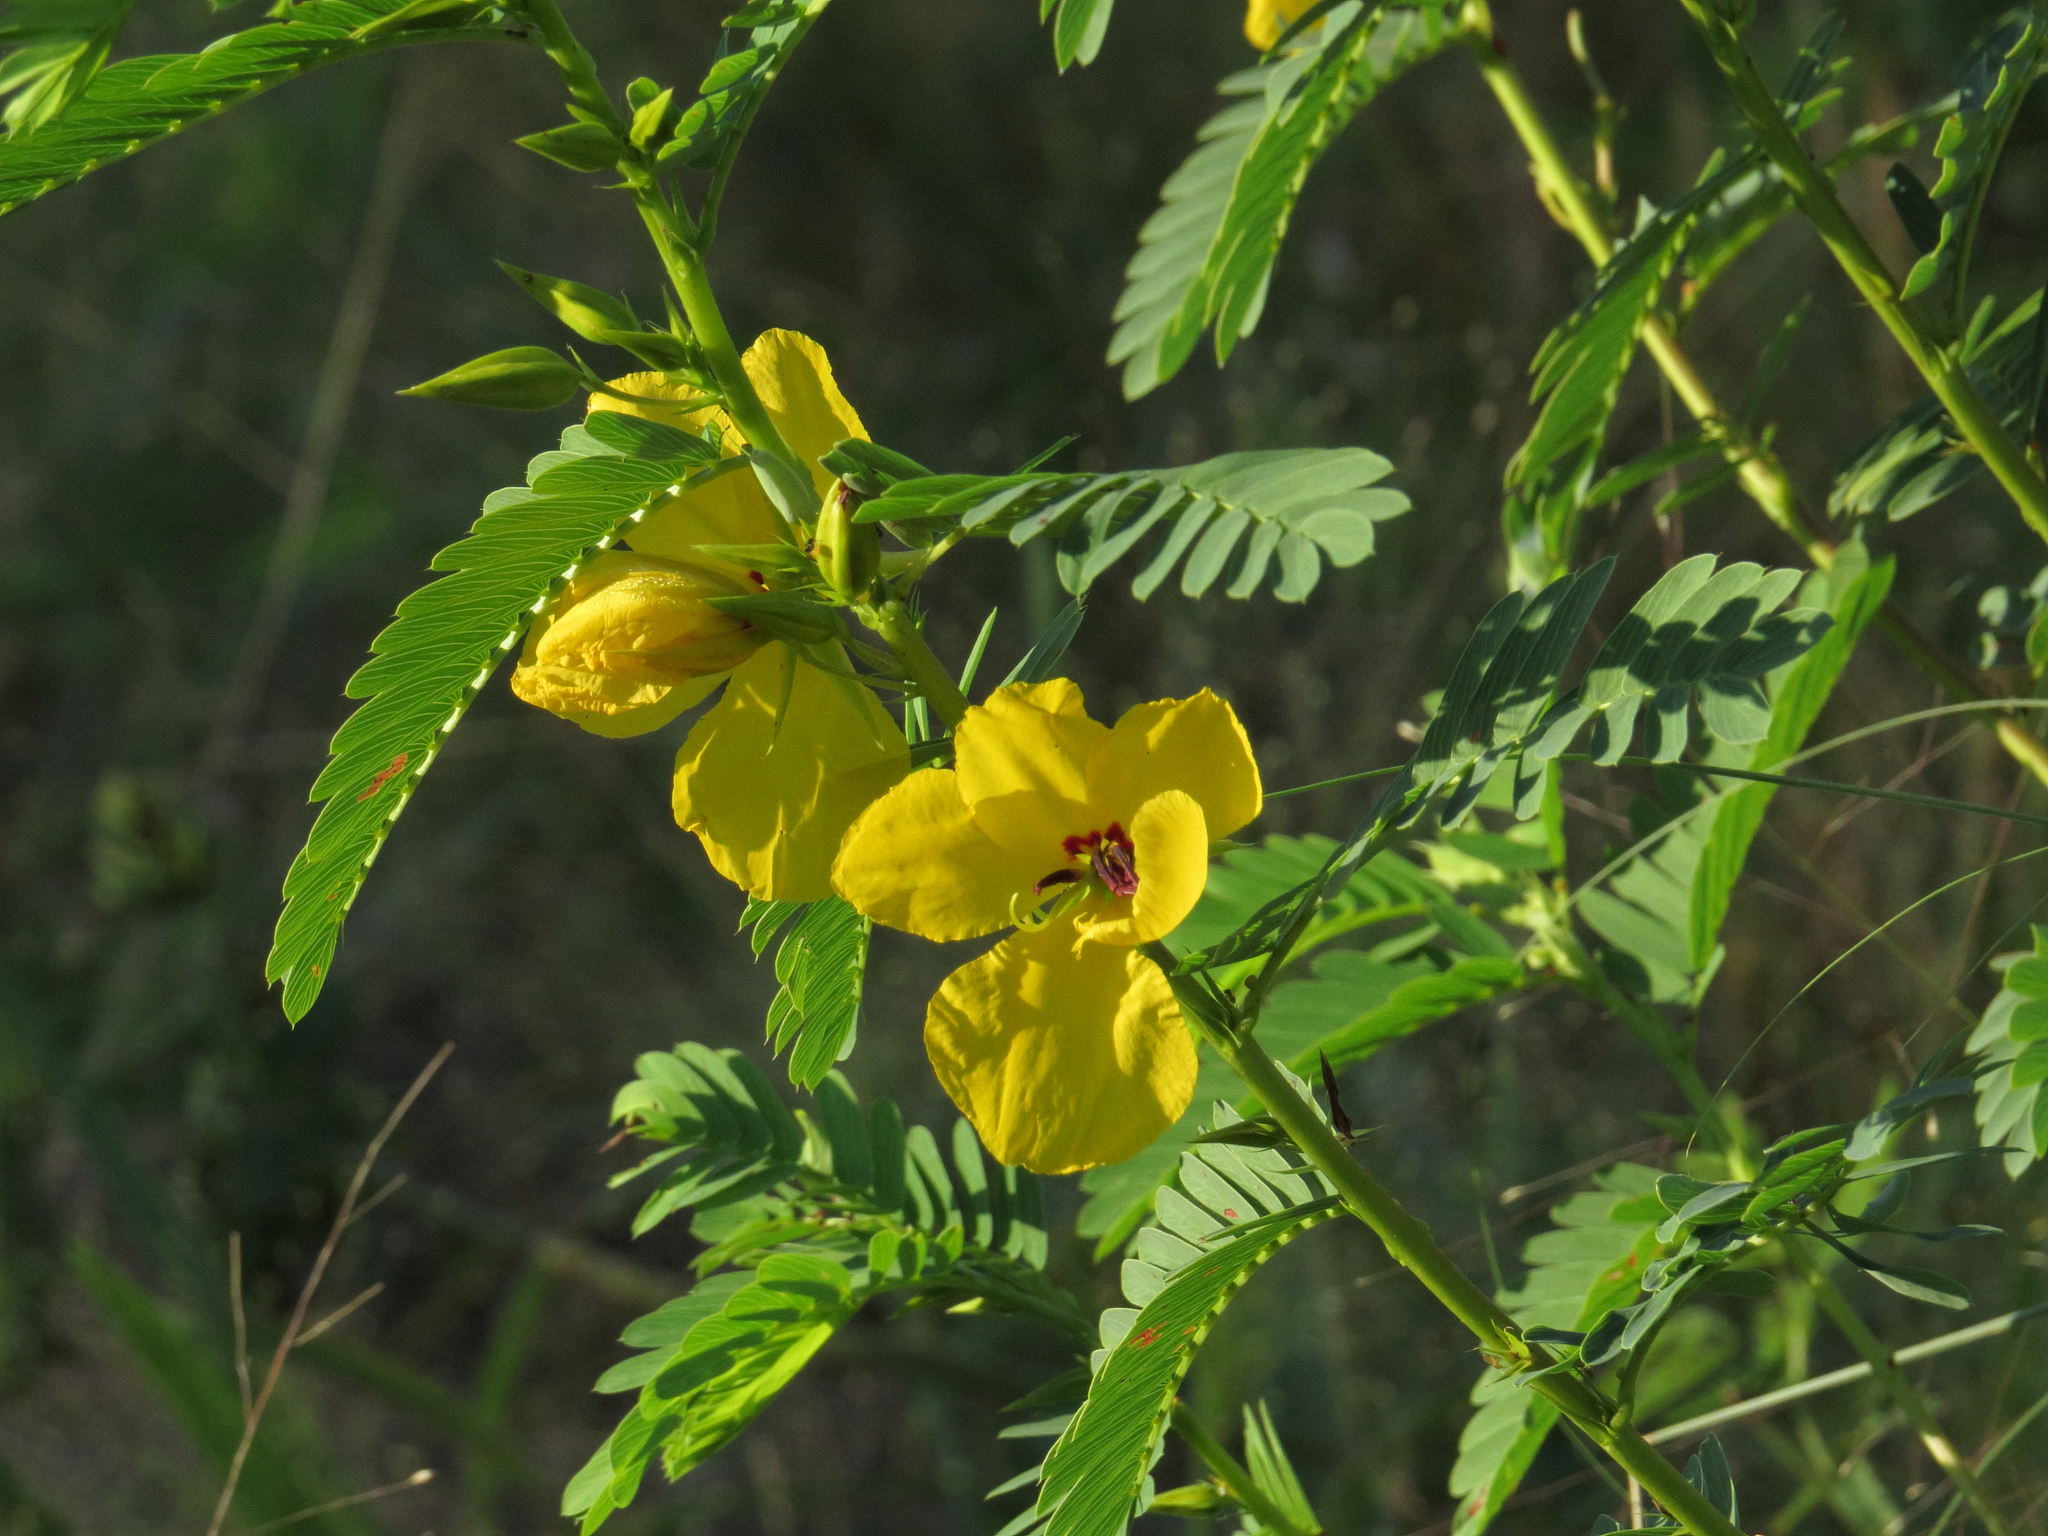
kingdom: Plantae
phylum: Tracheophyta
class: Magnoliopsida
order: Fabales
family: Fabaceae
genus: Chamaecrista
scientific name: Chamaecrista fasciculata
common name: Golden cassia
